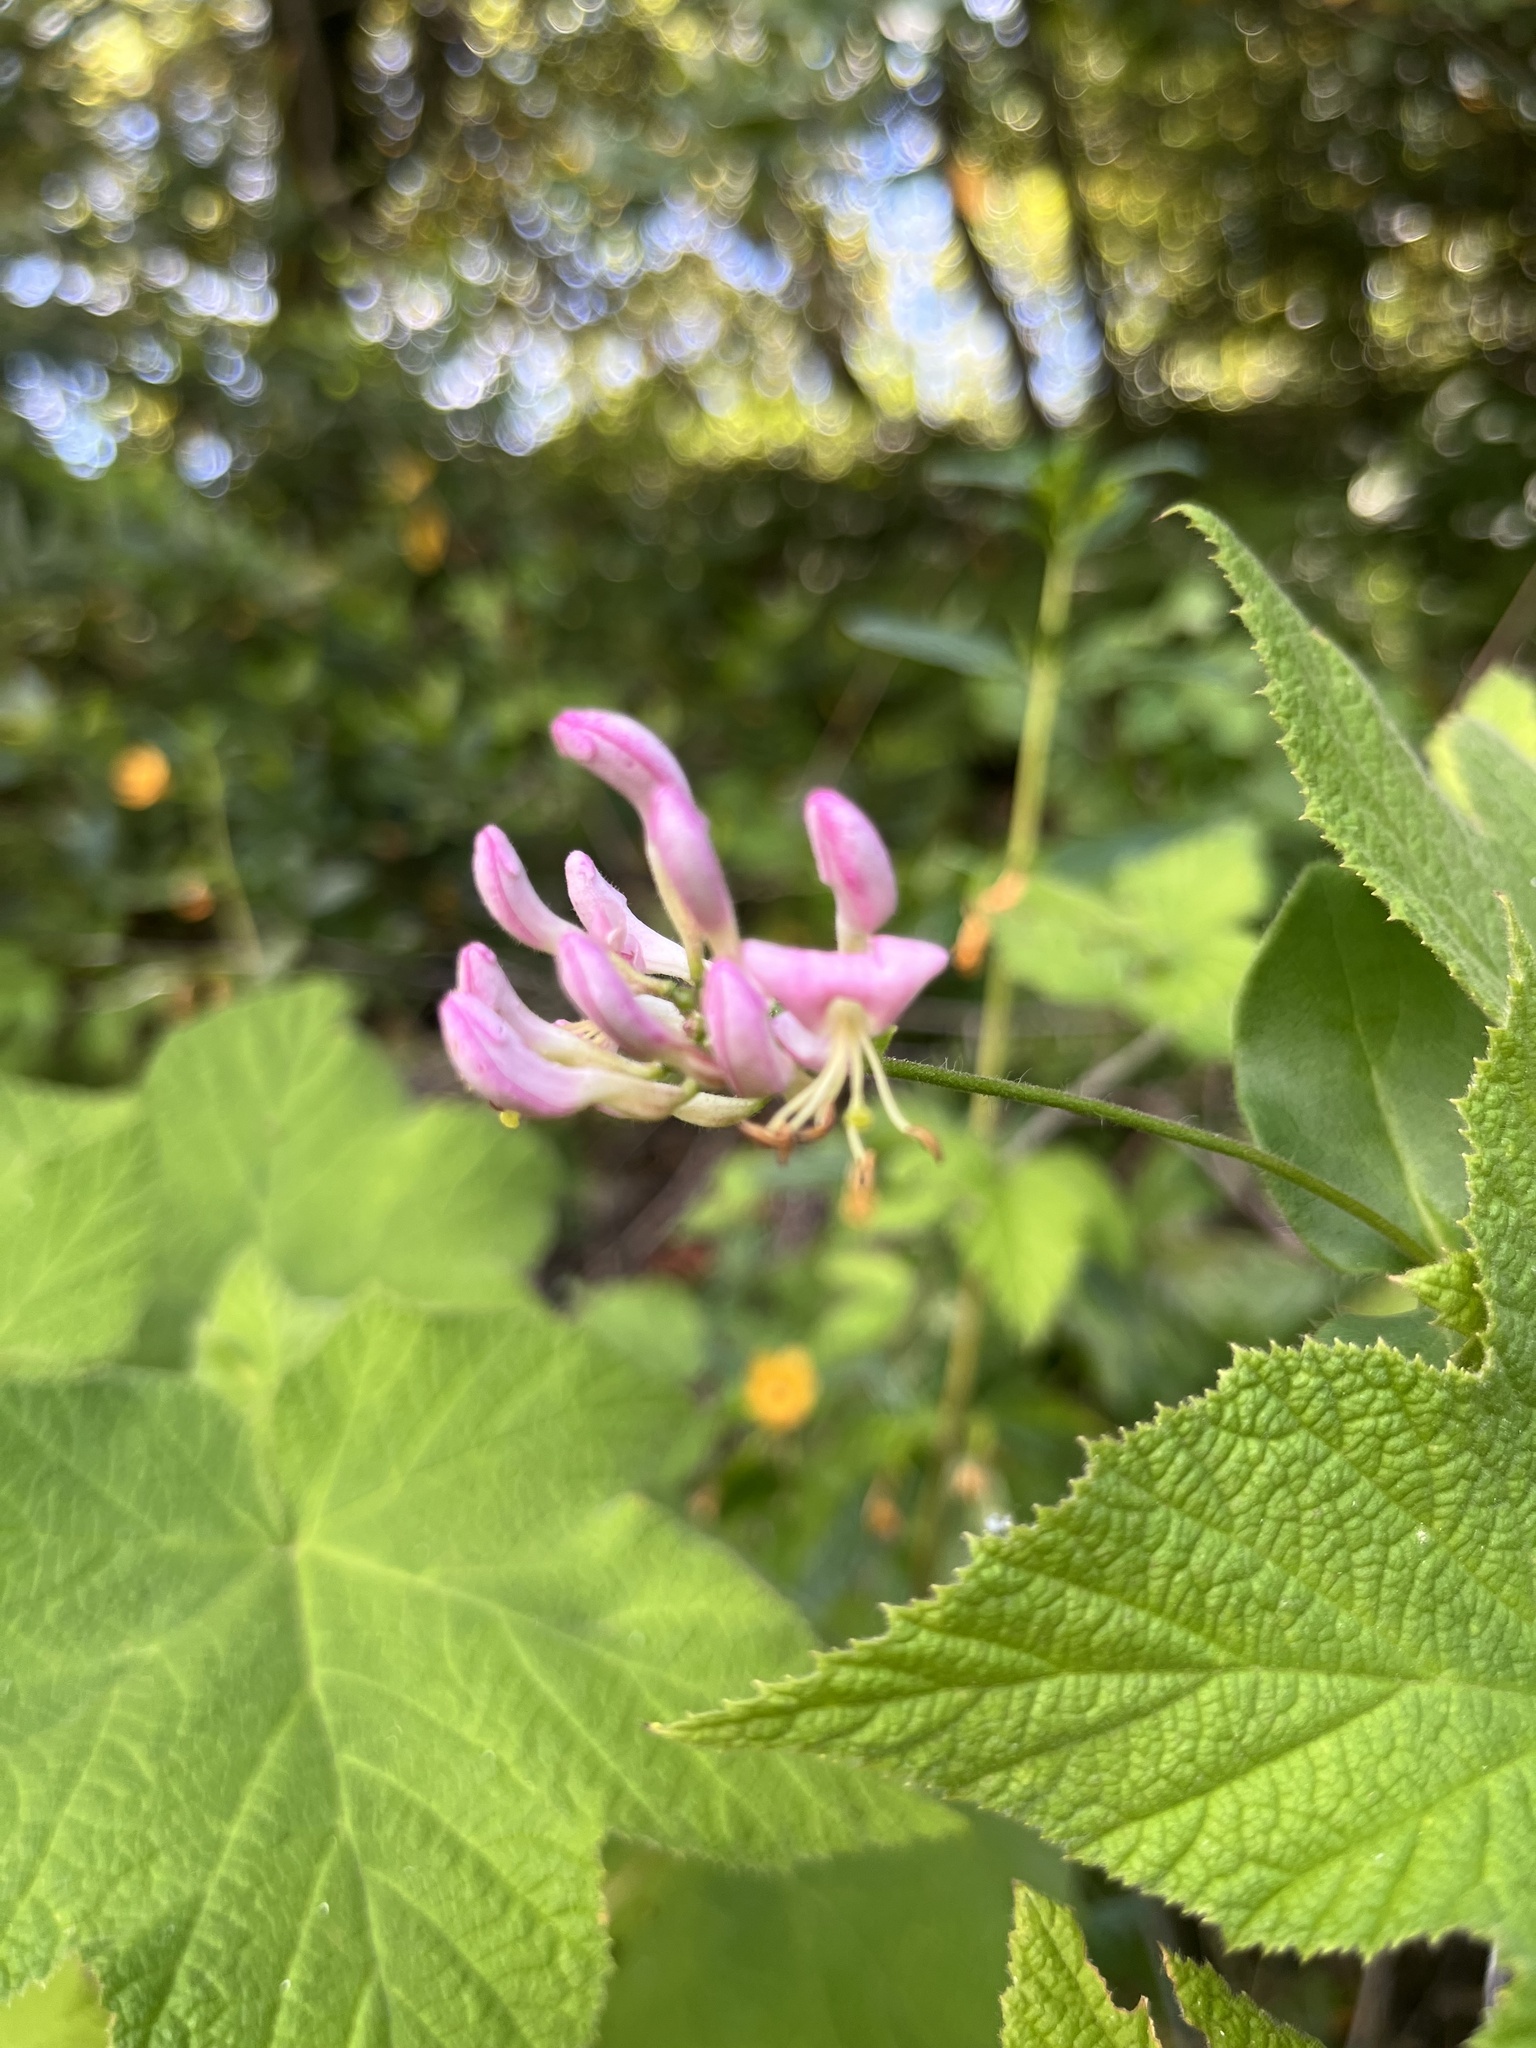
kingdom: Plantae
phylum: Tracheophyta
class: Magnoliopsida
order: Dipsacales
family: Caprifoliaceae
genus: Lonicera
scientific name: Lonicera hispidula
